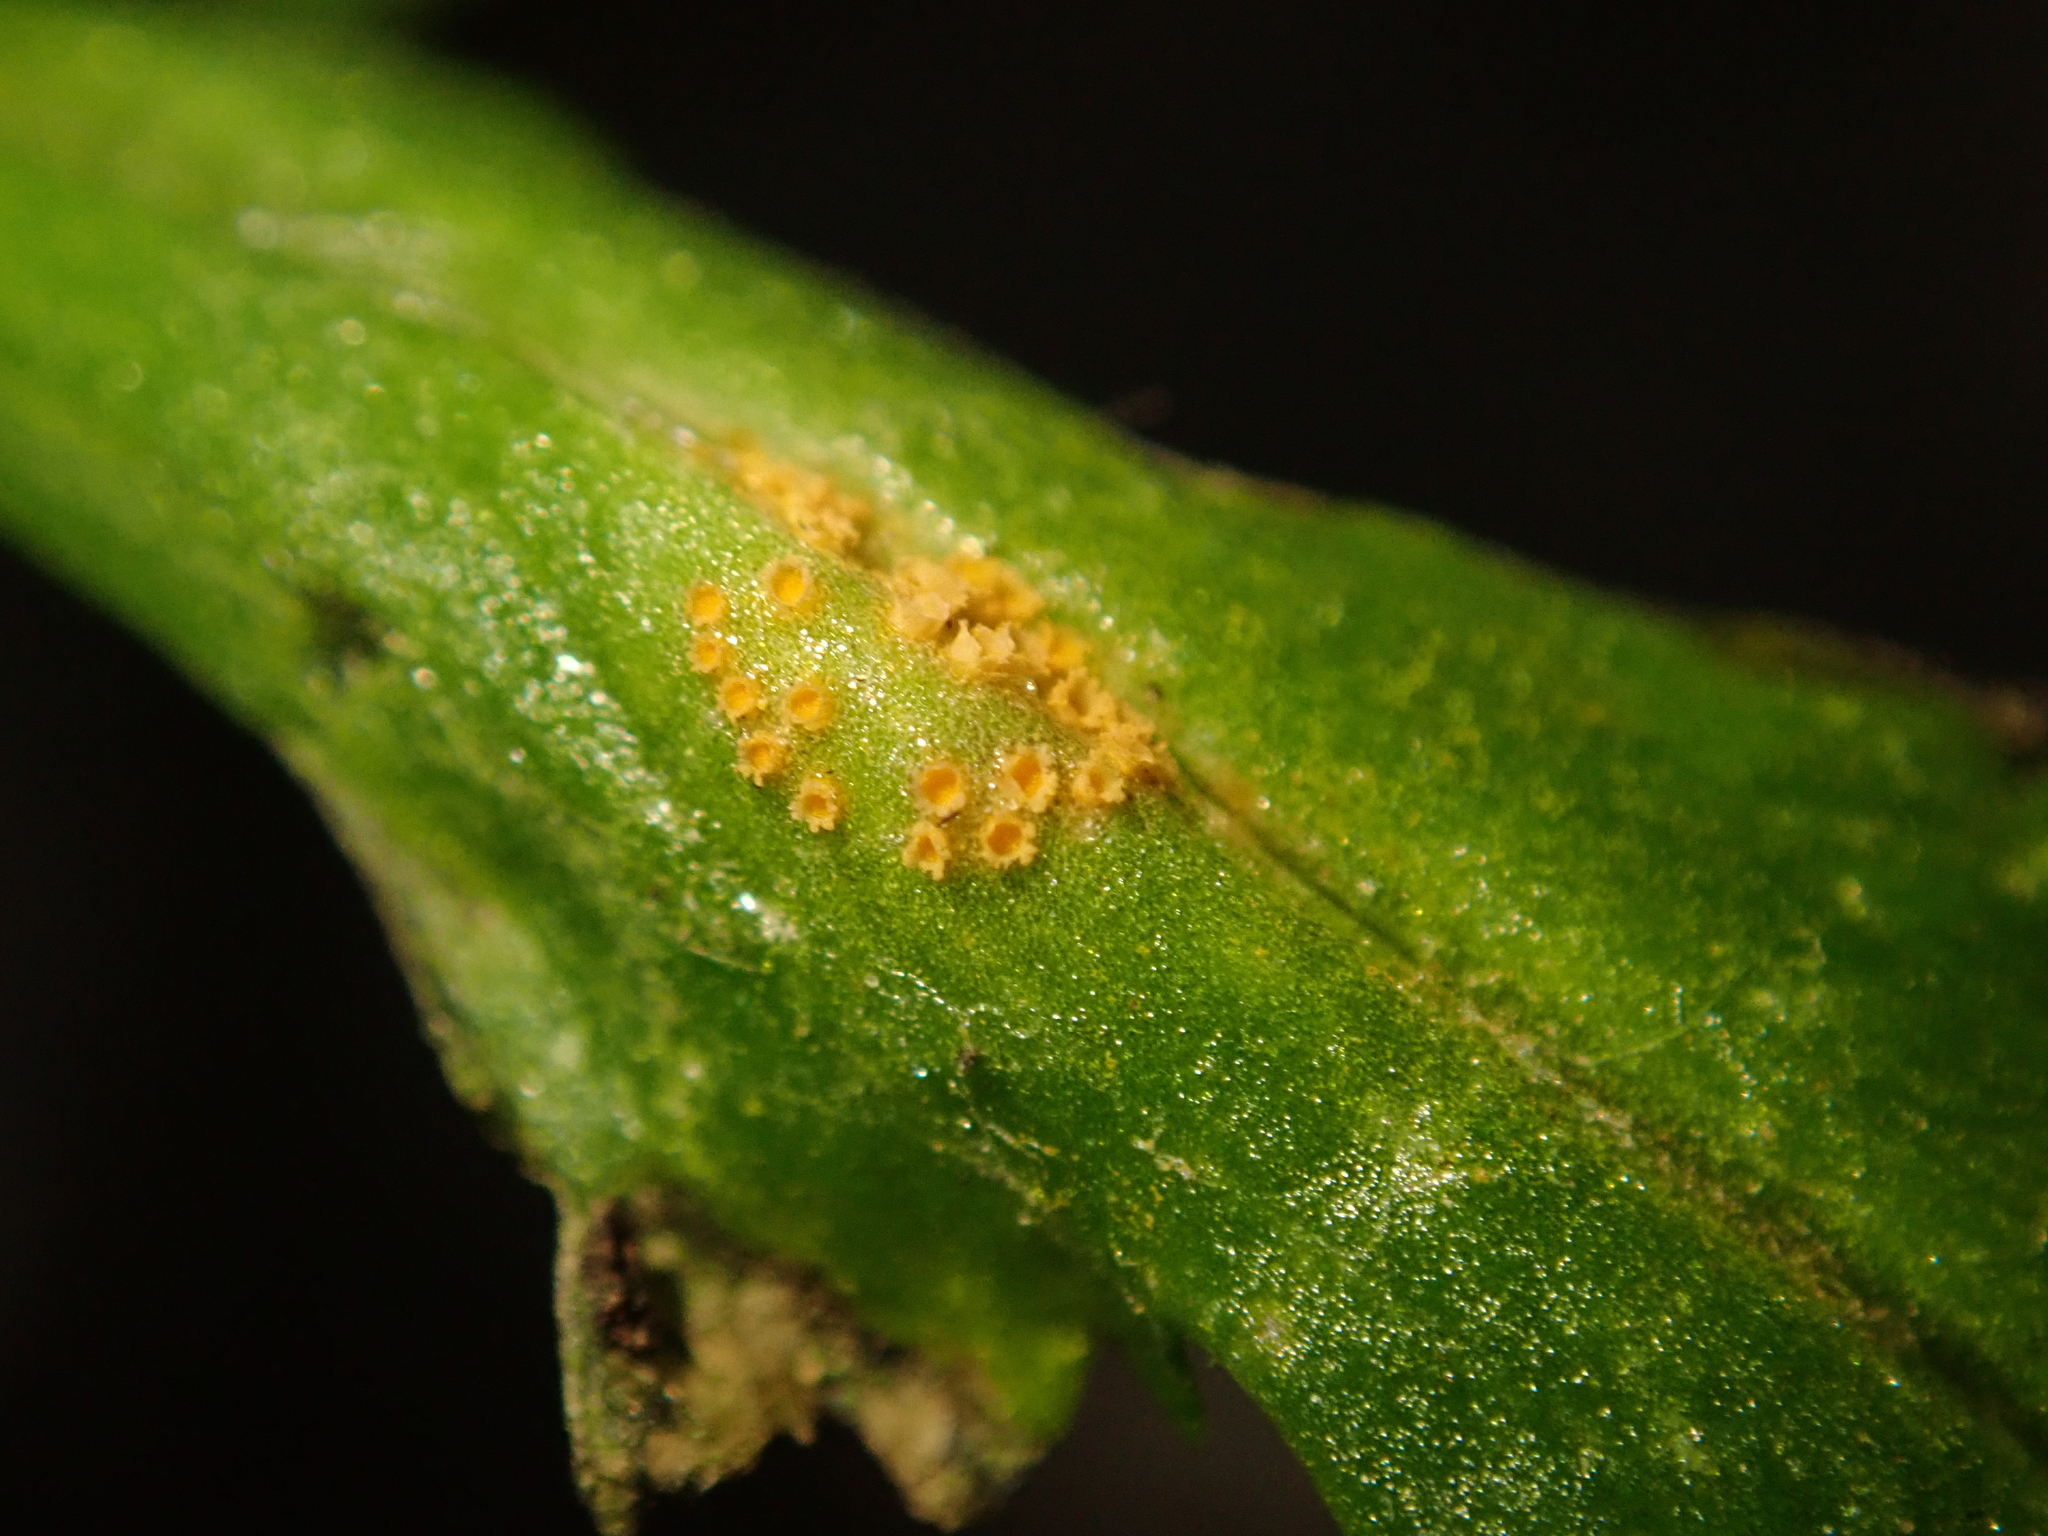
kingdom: Fungi
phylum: Basidiomycota
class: Pucciniomycetes
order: Pucciniales
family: Pucciniaceae
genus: Puccinia
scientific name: Puccinia lagenophorae
